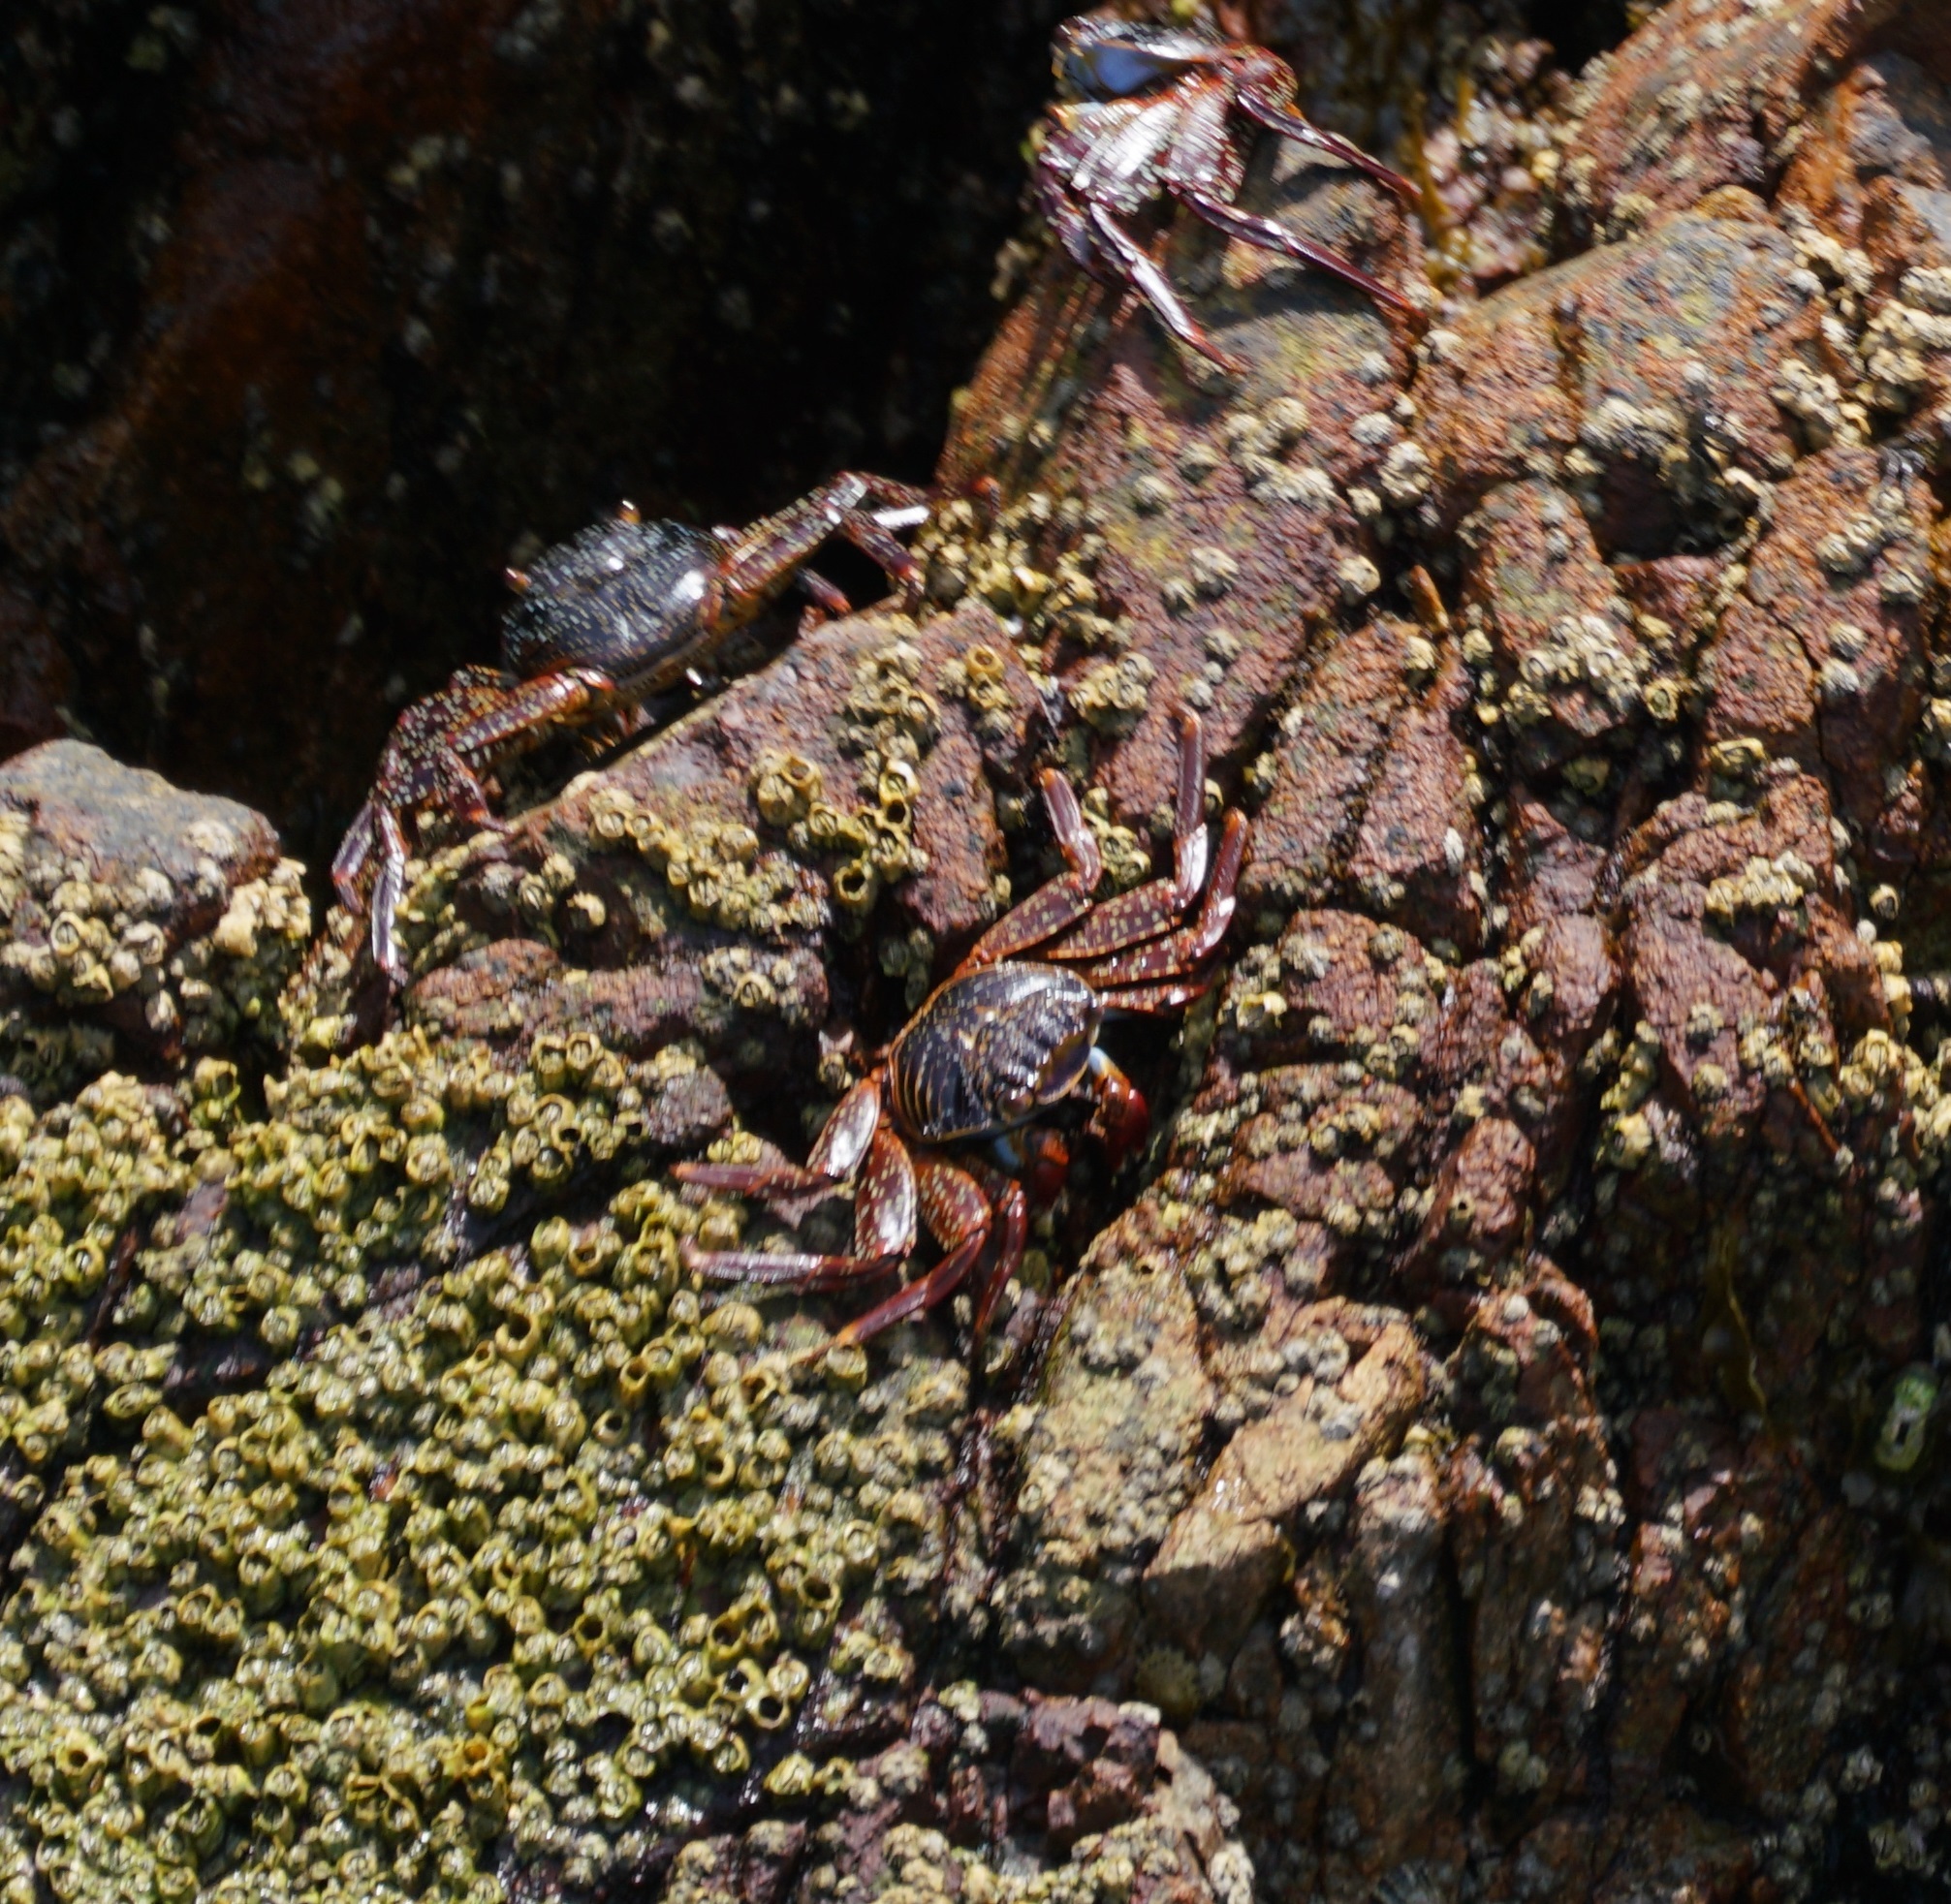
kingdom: Animalia
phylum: Arthropoda
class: Malacostraca
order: Decapoda
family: Grapsidae
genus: Grapsus
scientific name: Grapsus grapsus
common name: Sally lightfoot
